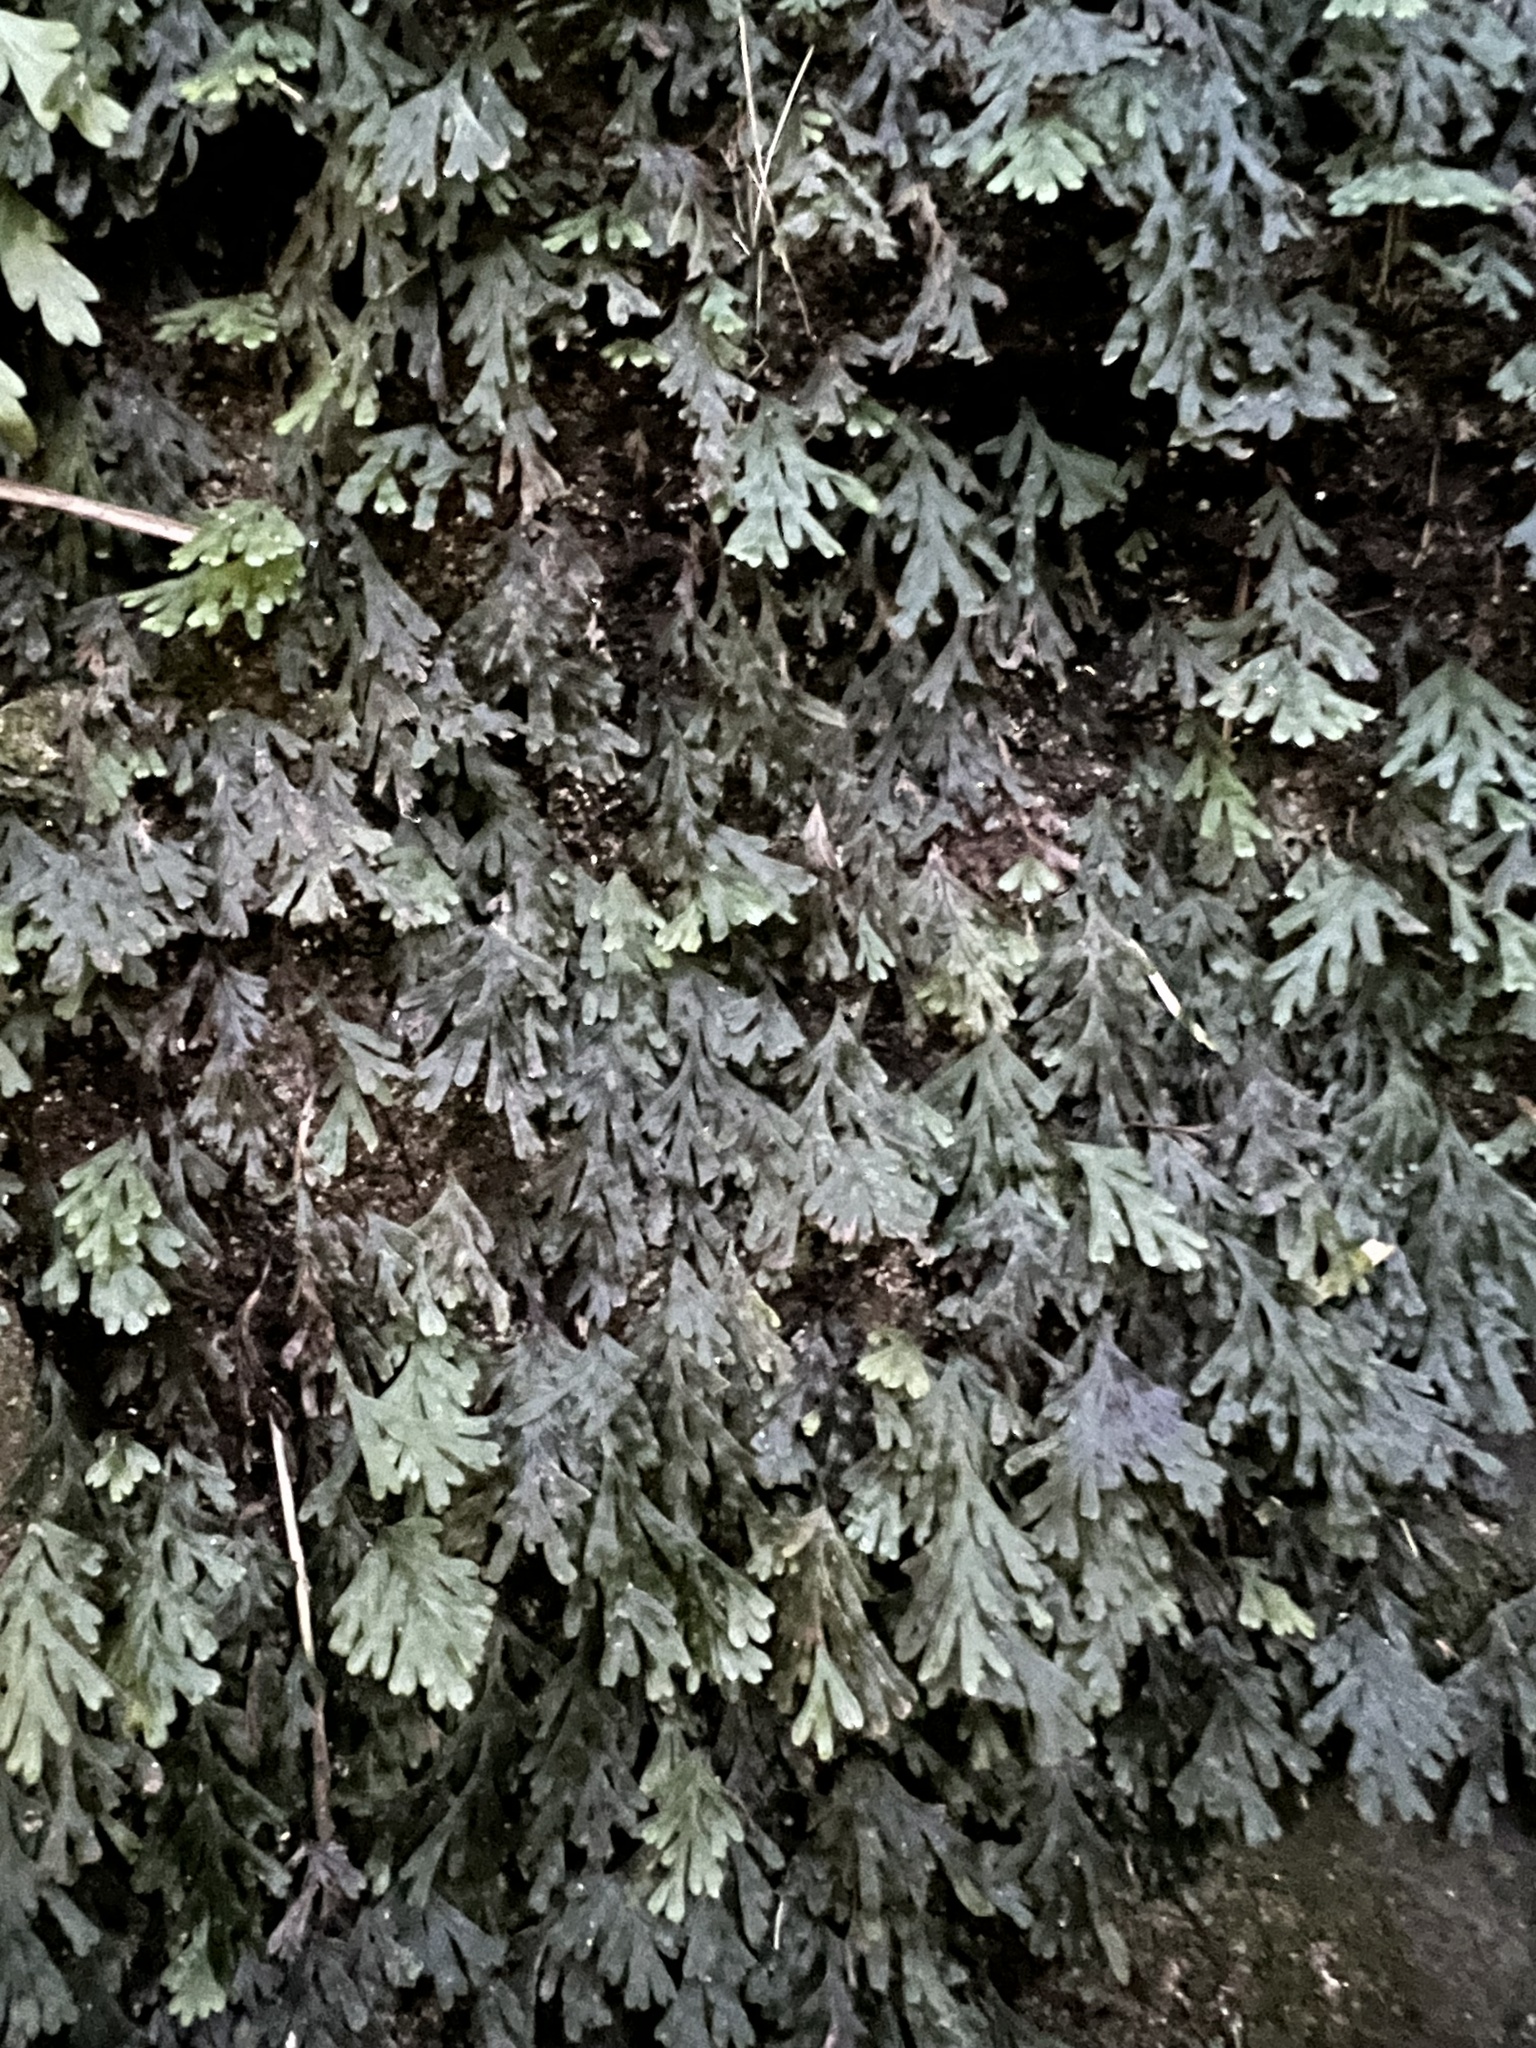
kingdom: Plantae
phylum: Tracheophyta
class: Polypodiopsida
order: Hymenophyllales
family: Hymenophyllaceae
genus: Polyphlebium
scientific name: Polyphlebium endlicherianum
